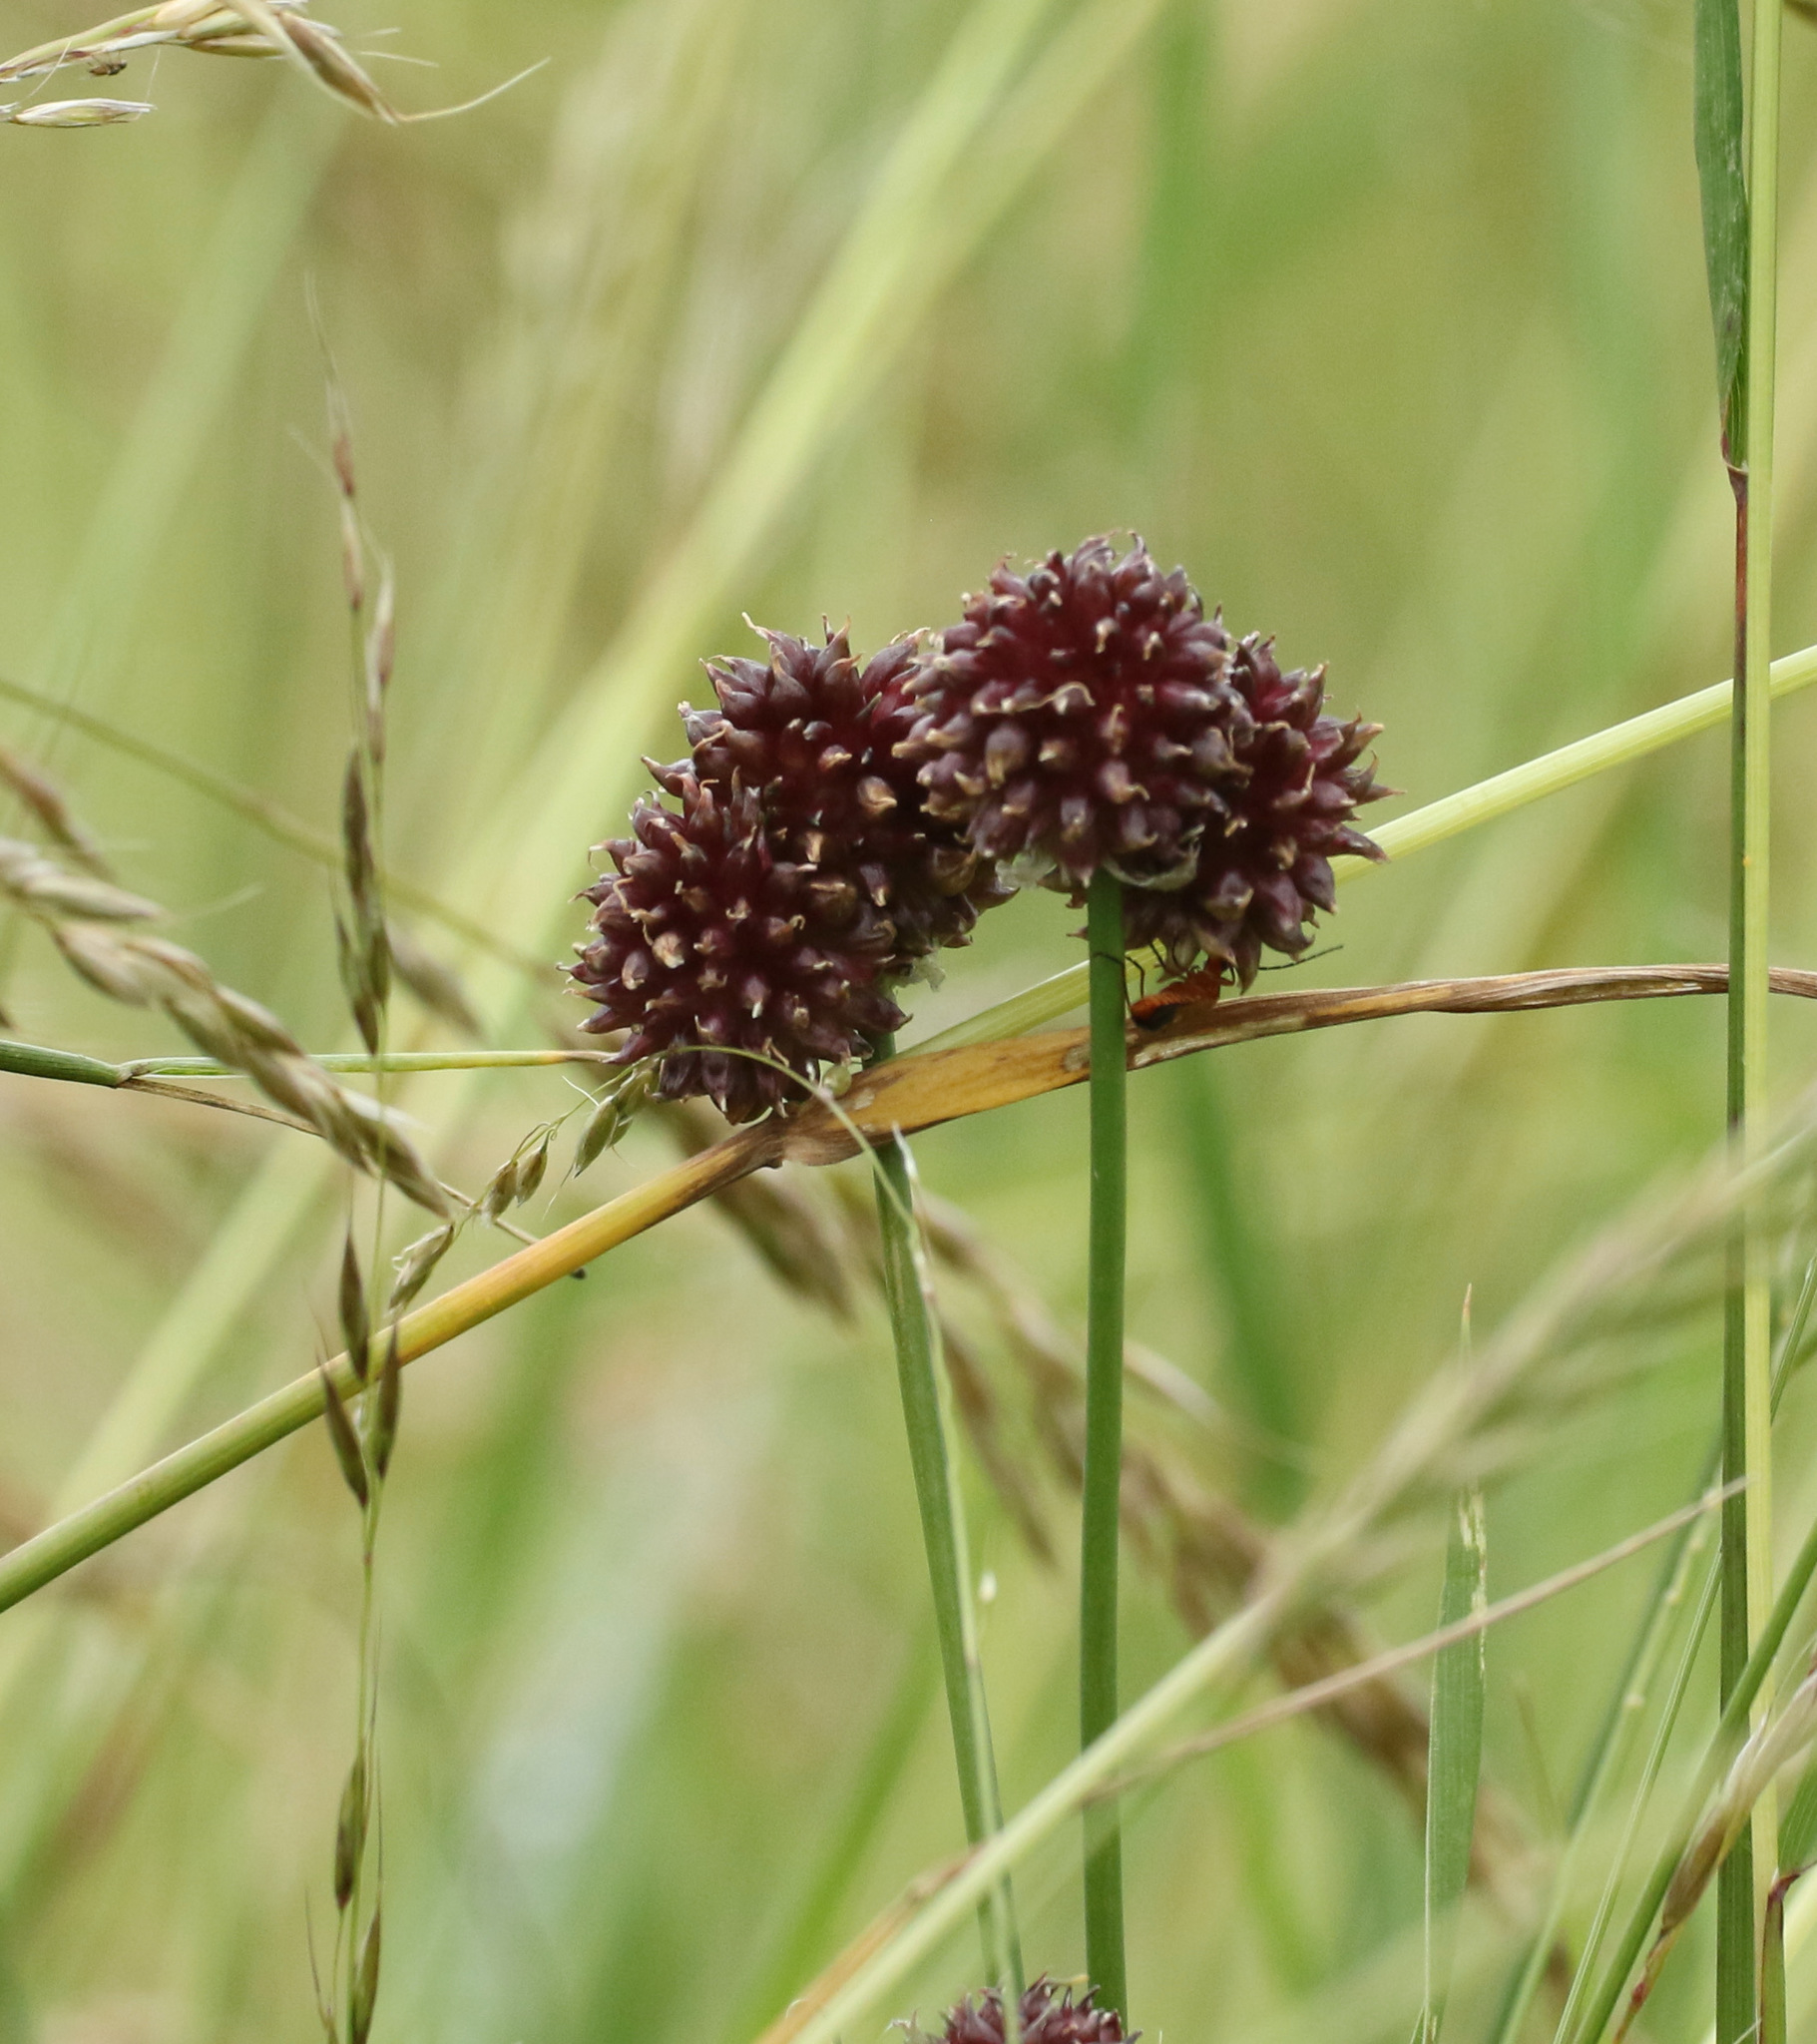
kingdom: Plantae
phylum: Tracheophyta
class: Liliopsida
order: Asparagales
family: Amaryllidaceae
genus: Allium
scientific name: Allium vineale
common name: Crow garlic
